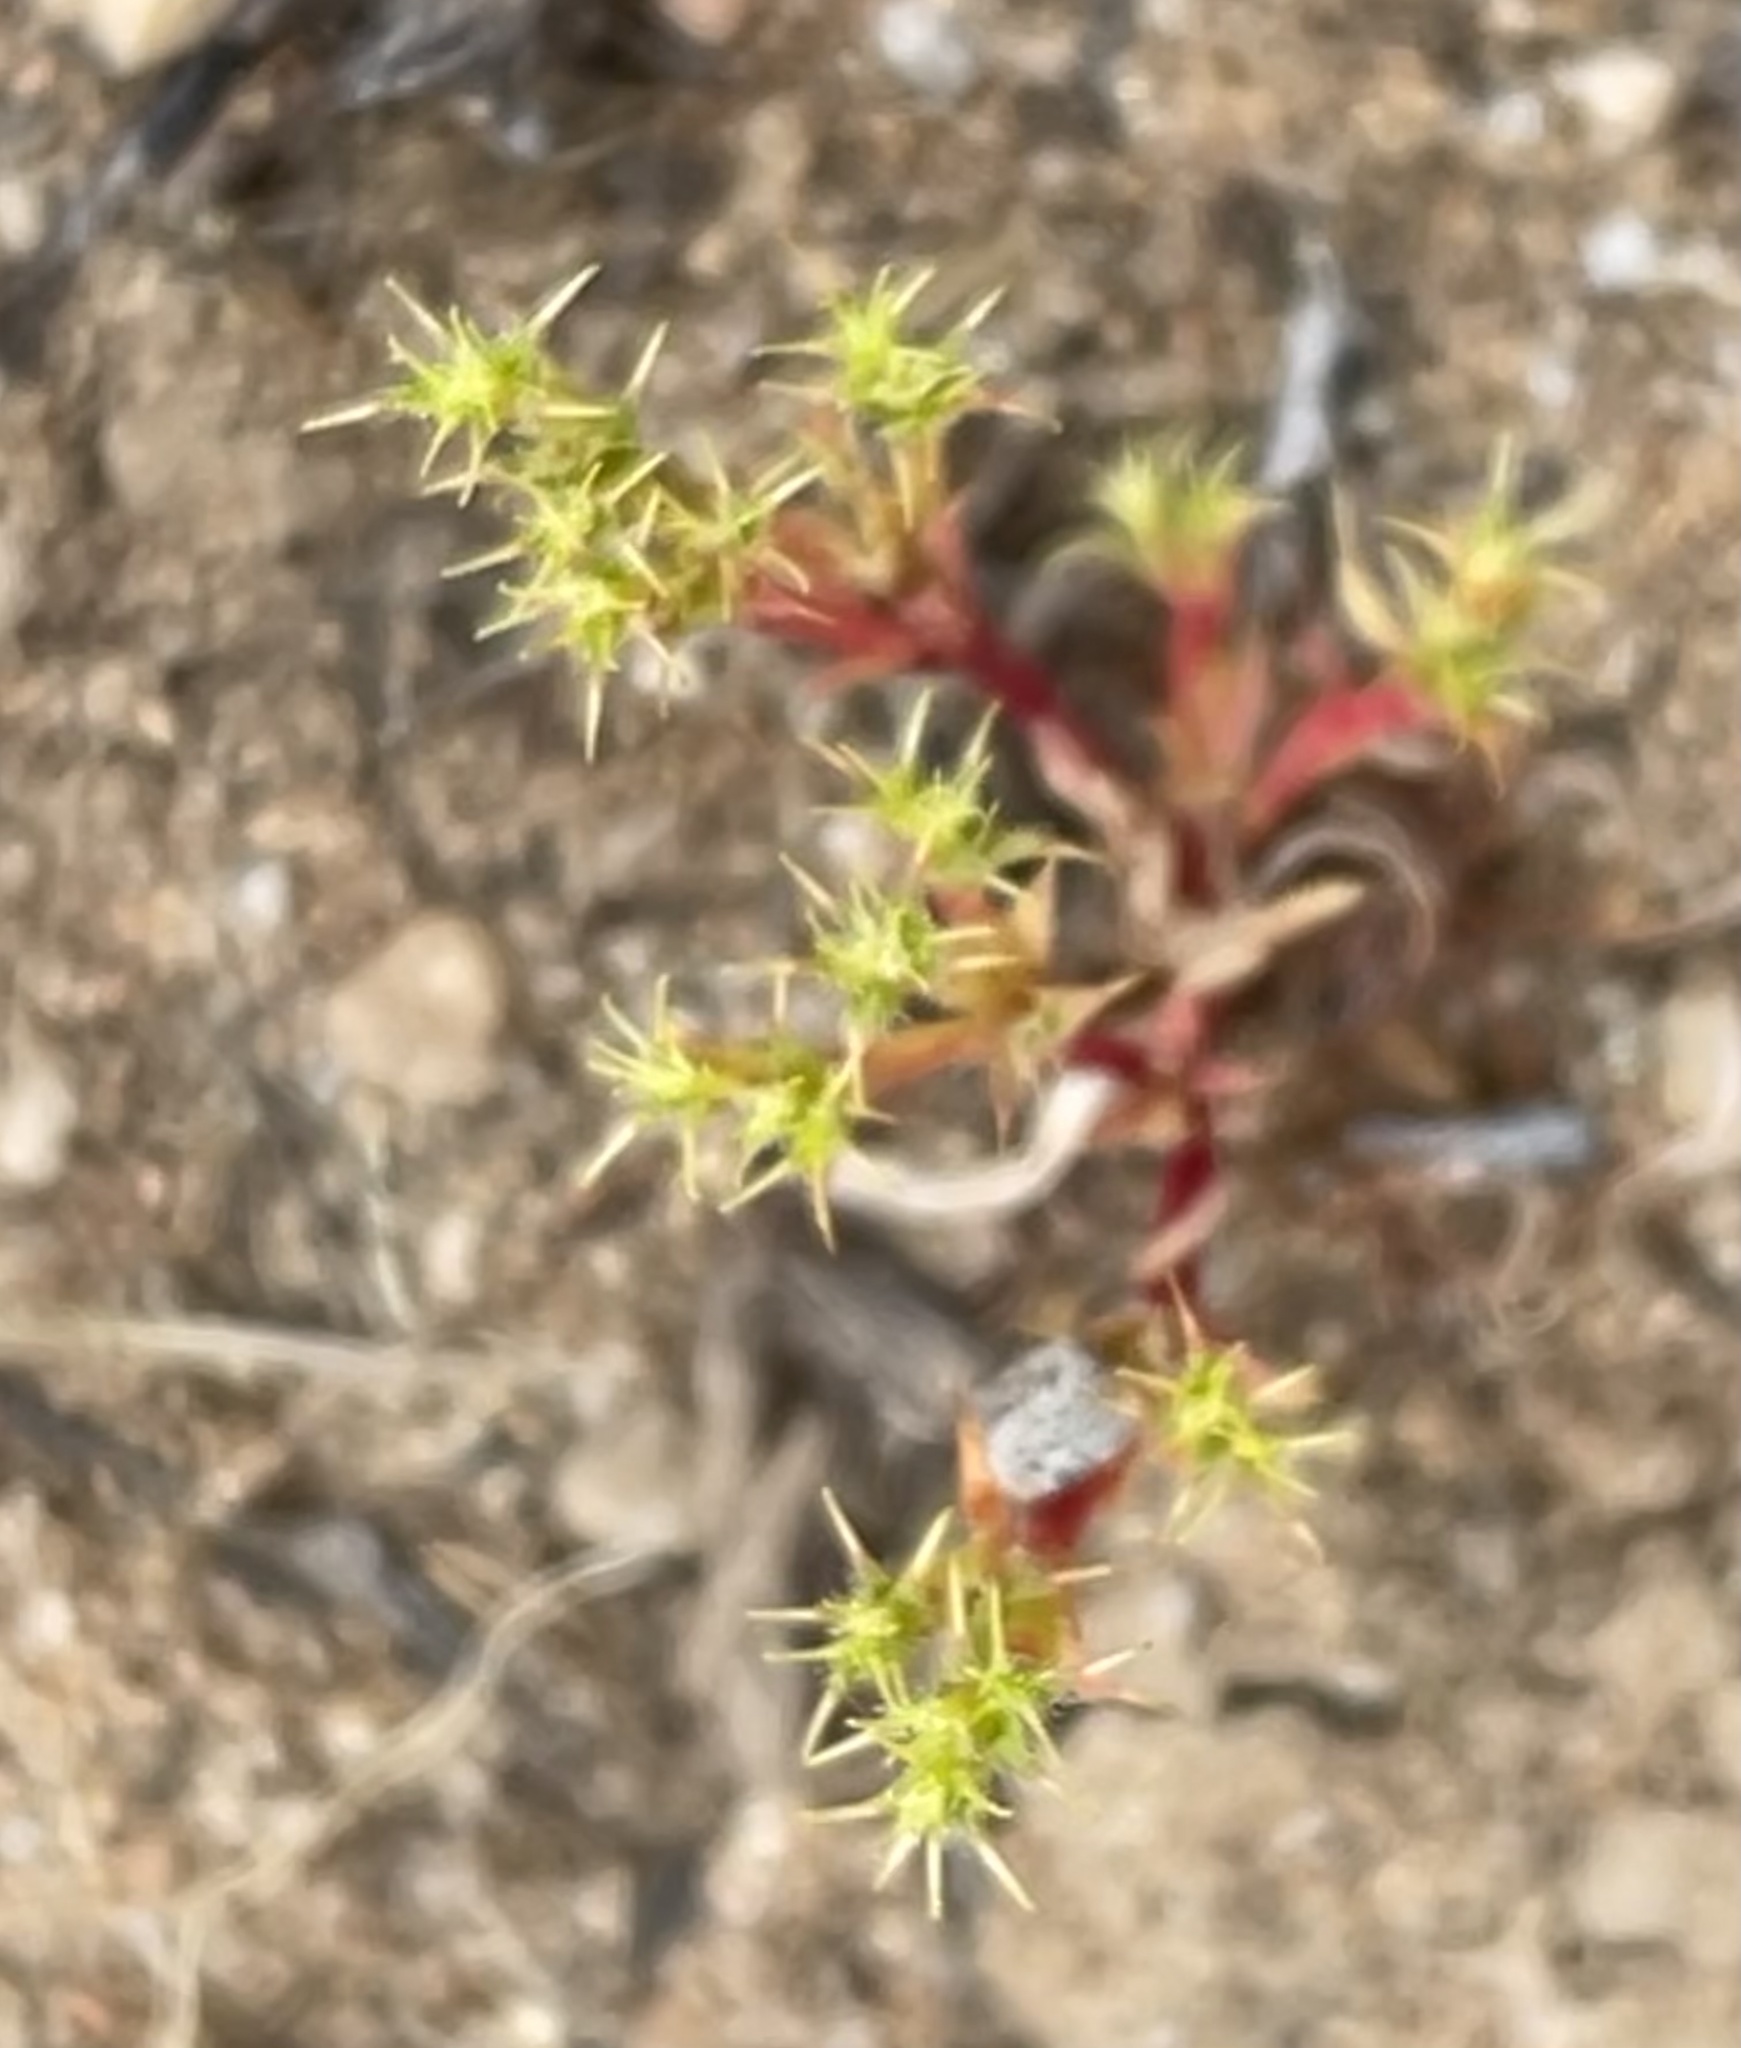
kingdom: Plantae
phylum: Tracheophyta
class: Magnoliopsida
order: Caryophyllales
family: Polygonaceae
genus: Lastarriaea
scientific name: Lastarriaea coriacea
